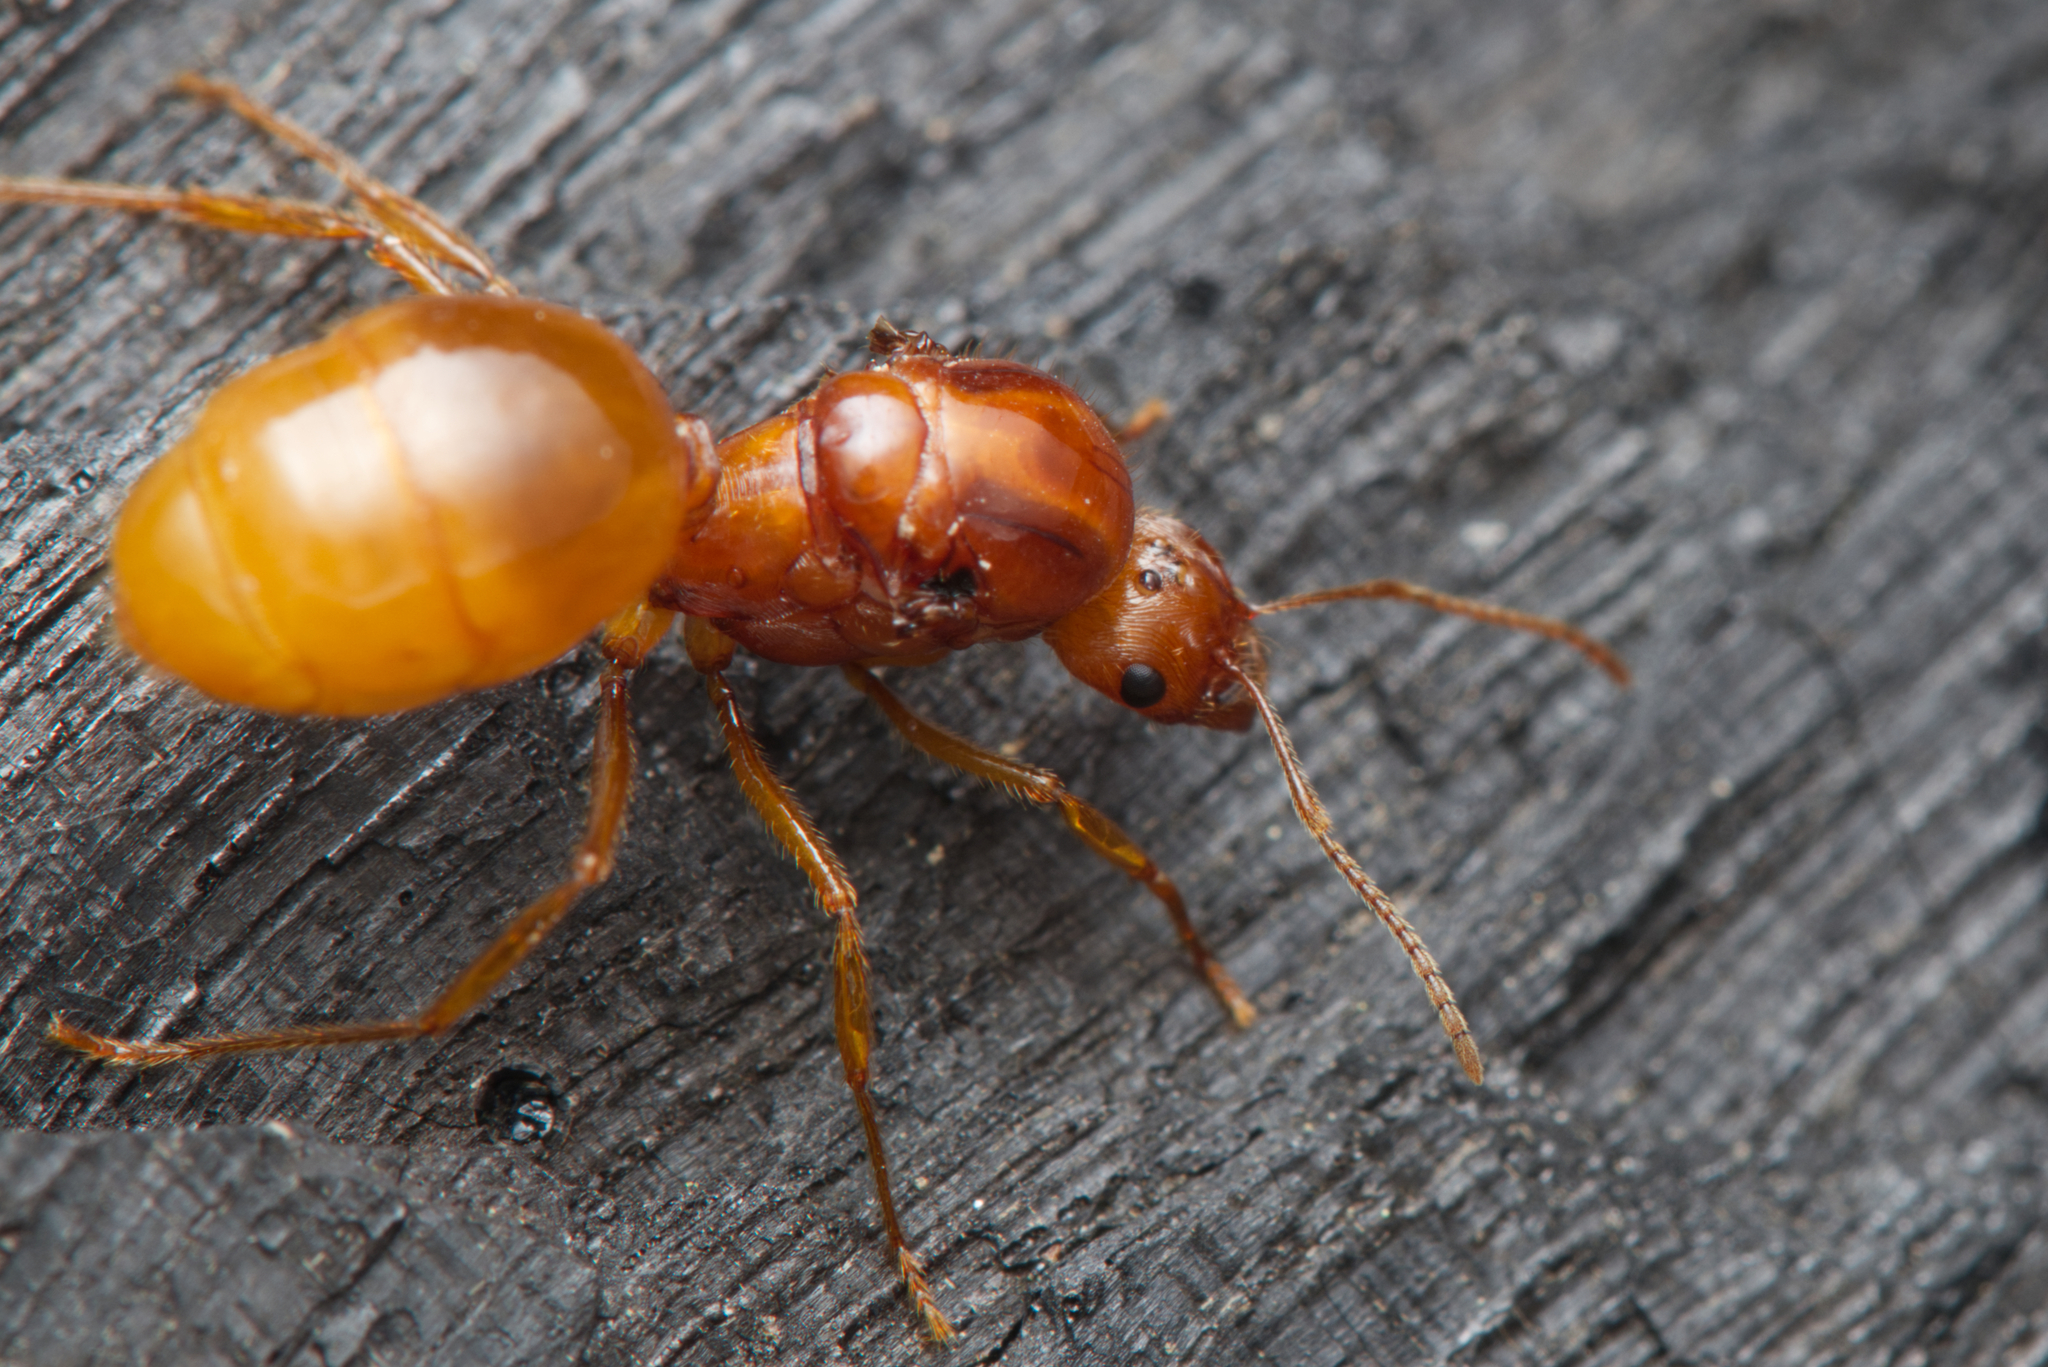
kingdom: Animalia
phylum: Arthropoda
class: Insecta
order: Hymenoptera
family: Formicidae
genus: Aphaenogaster
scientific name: Aphaenogaster pythia
